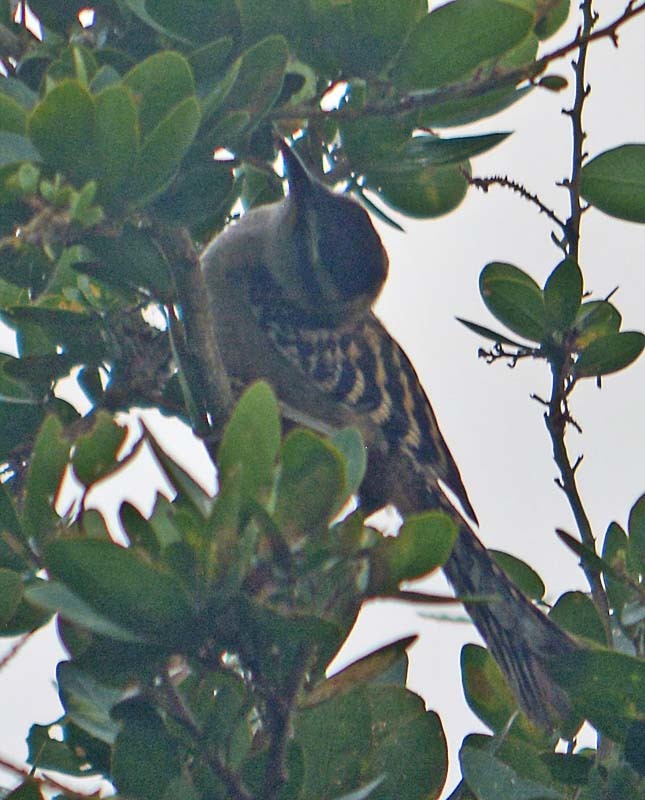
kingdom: Animalia
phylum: Chordata
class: Aves
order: Passeriformes
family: Troglodytidae
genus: Campylorhynchus
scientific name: Campylorhynchus rufinucha
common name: Rufous-naped wren
